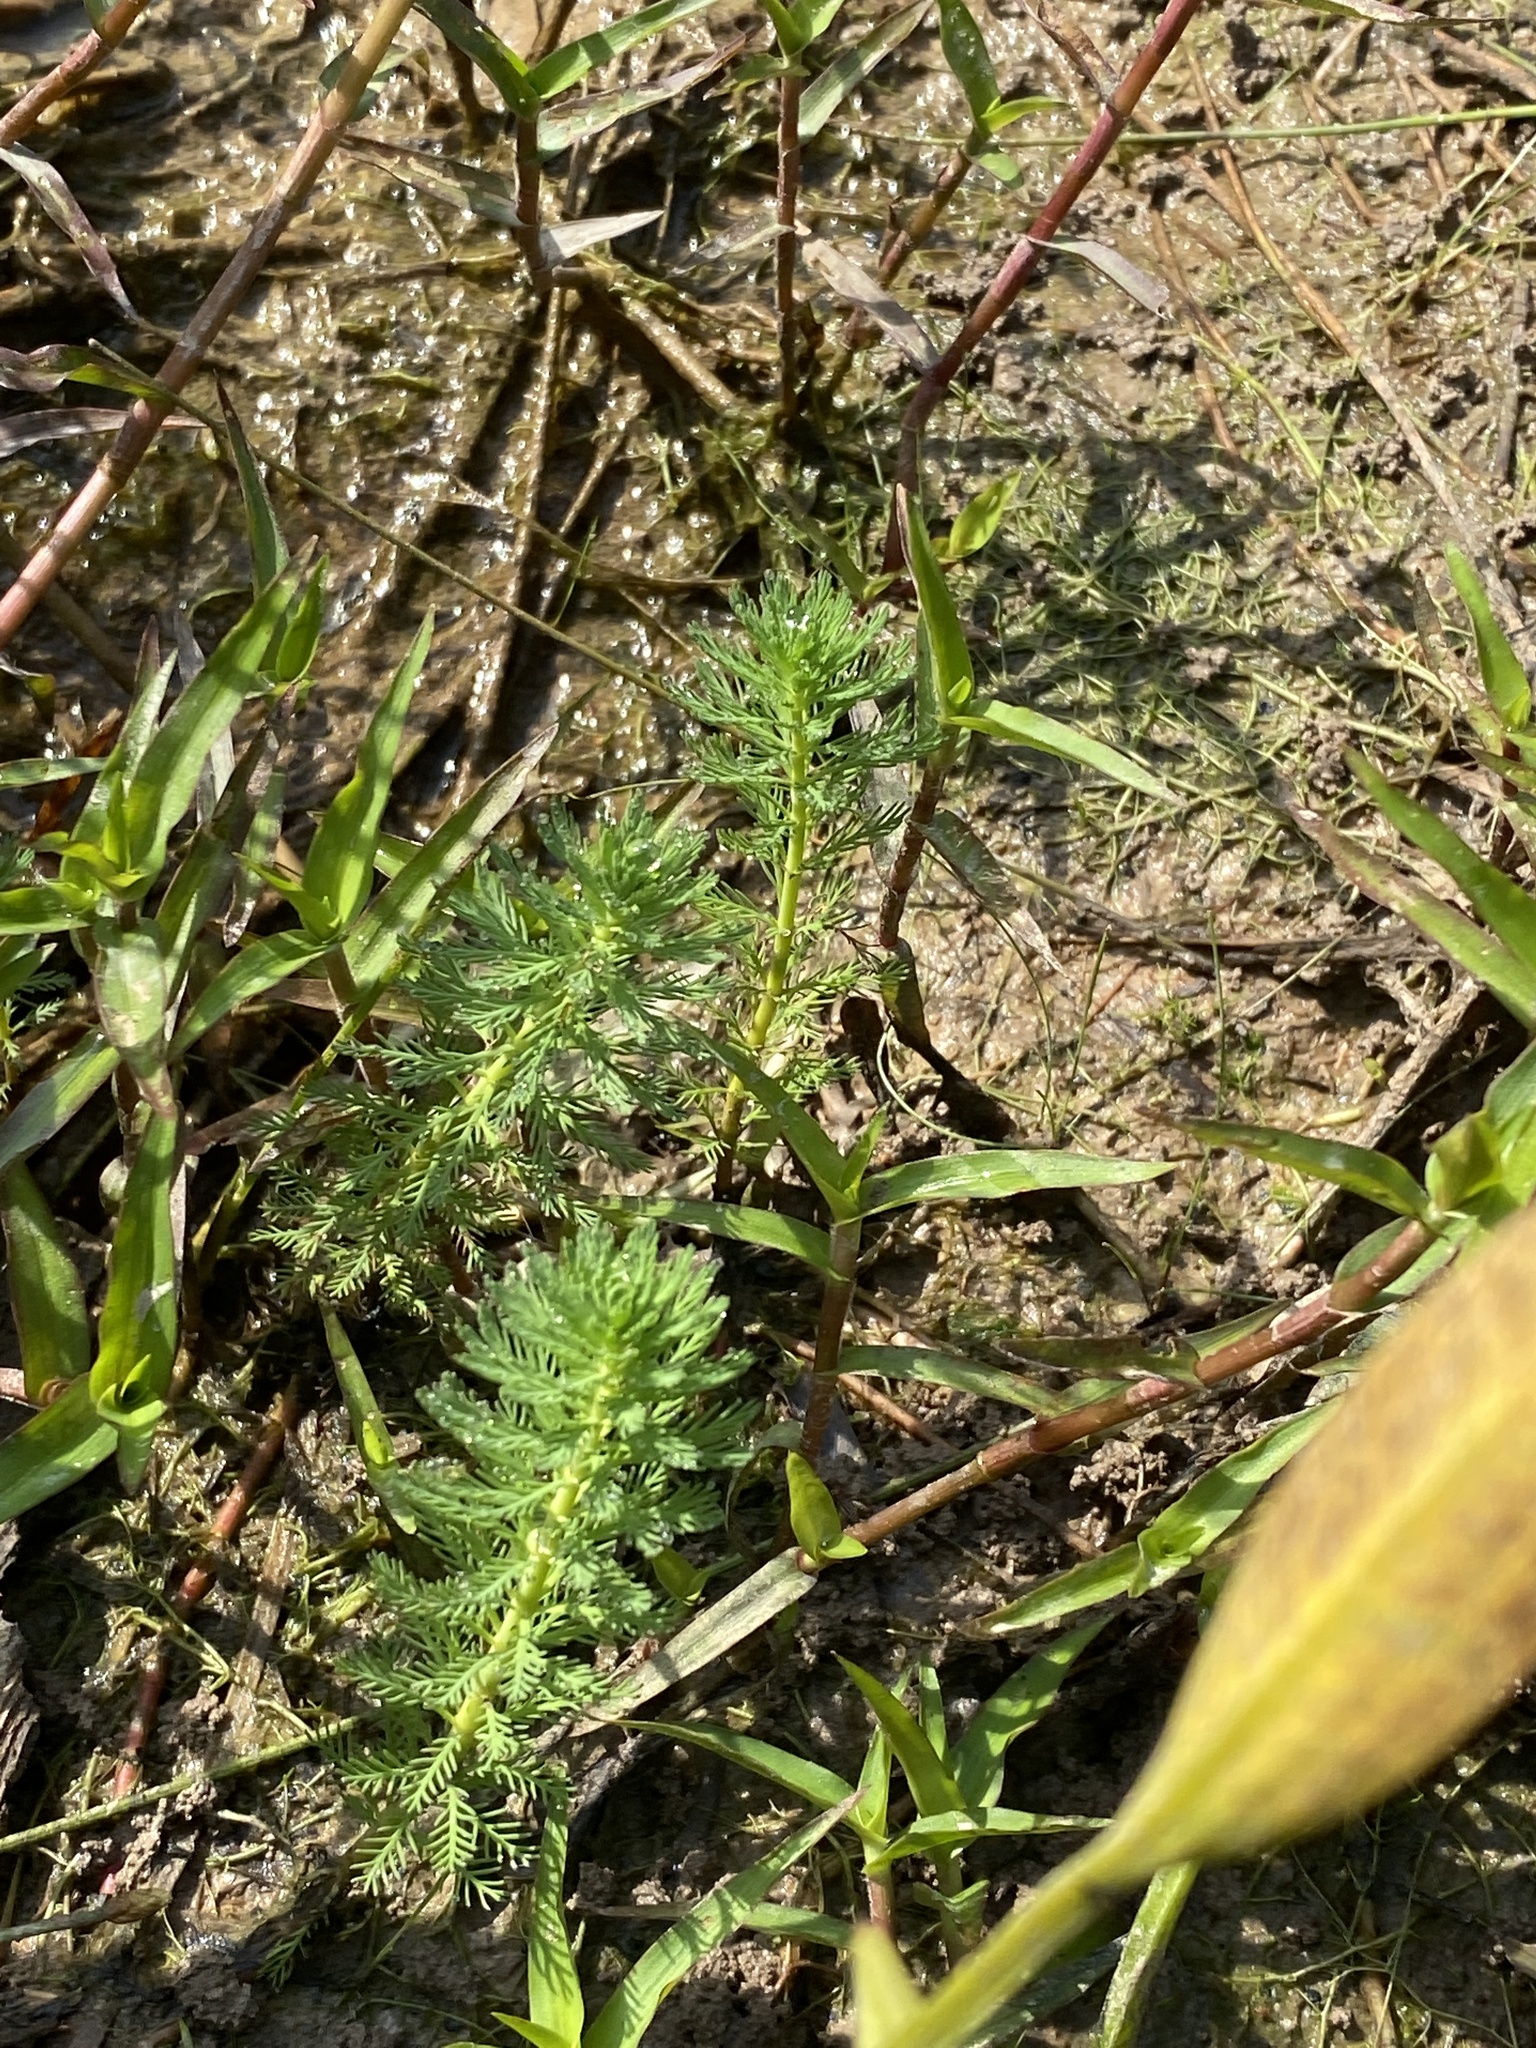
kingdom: Plantae
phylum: Tracheophyta
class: Magnoliopsida
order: Saxifragales
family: Haloragaceae
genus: Myriophyllum
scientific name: Myriophyllum aquaticum
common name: Parrot's feather
